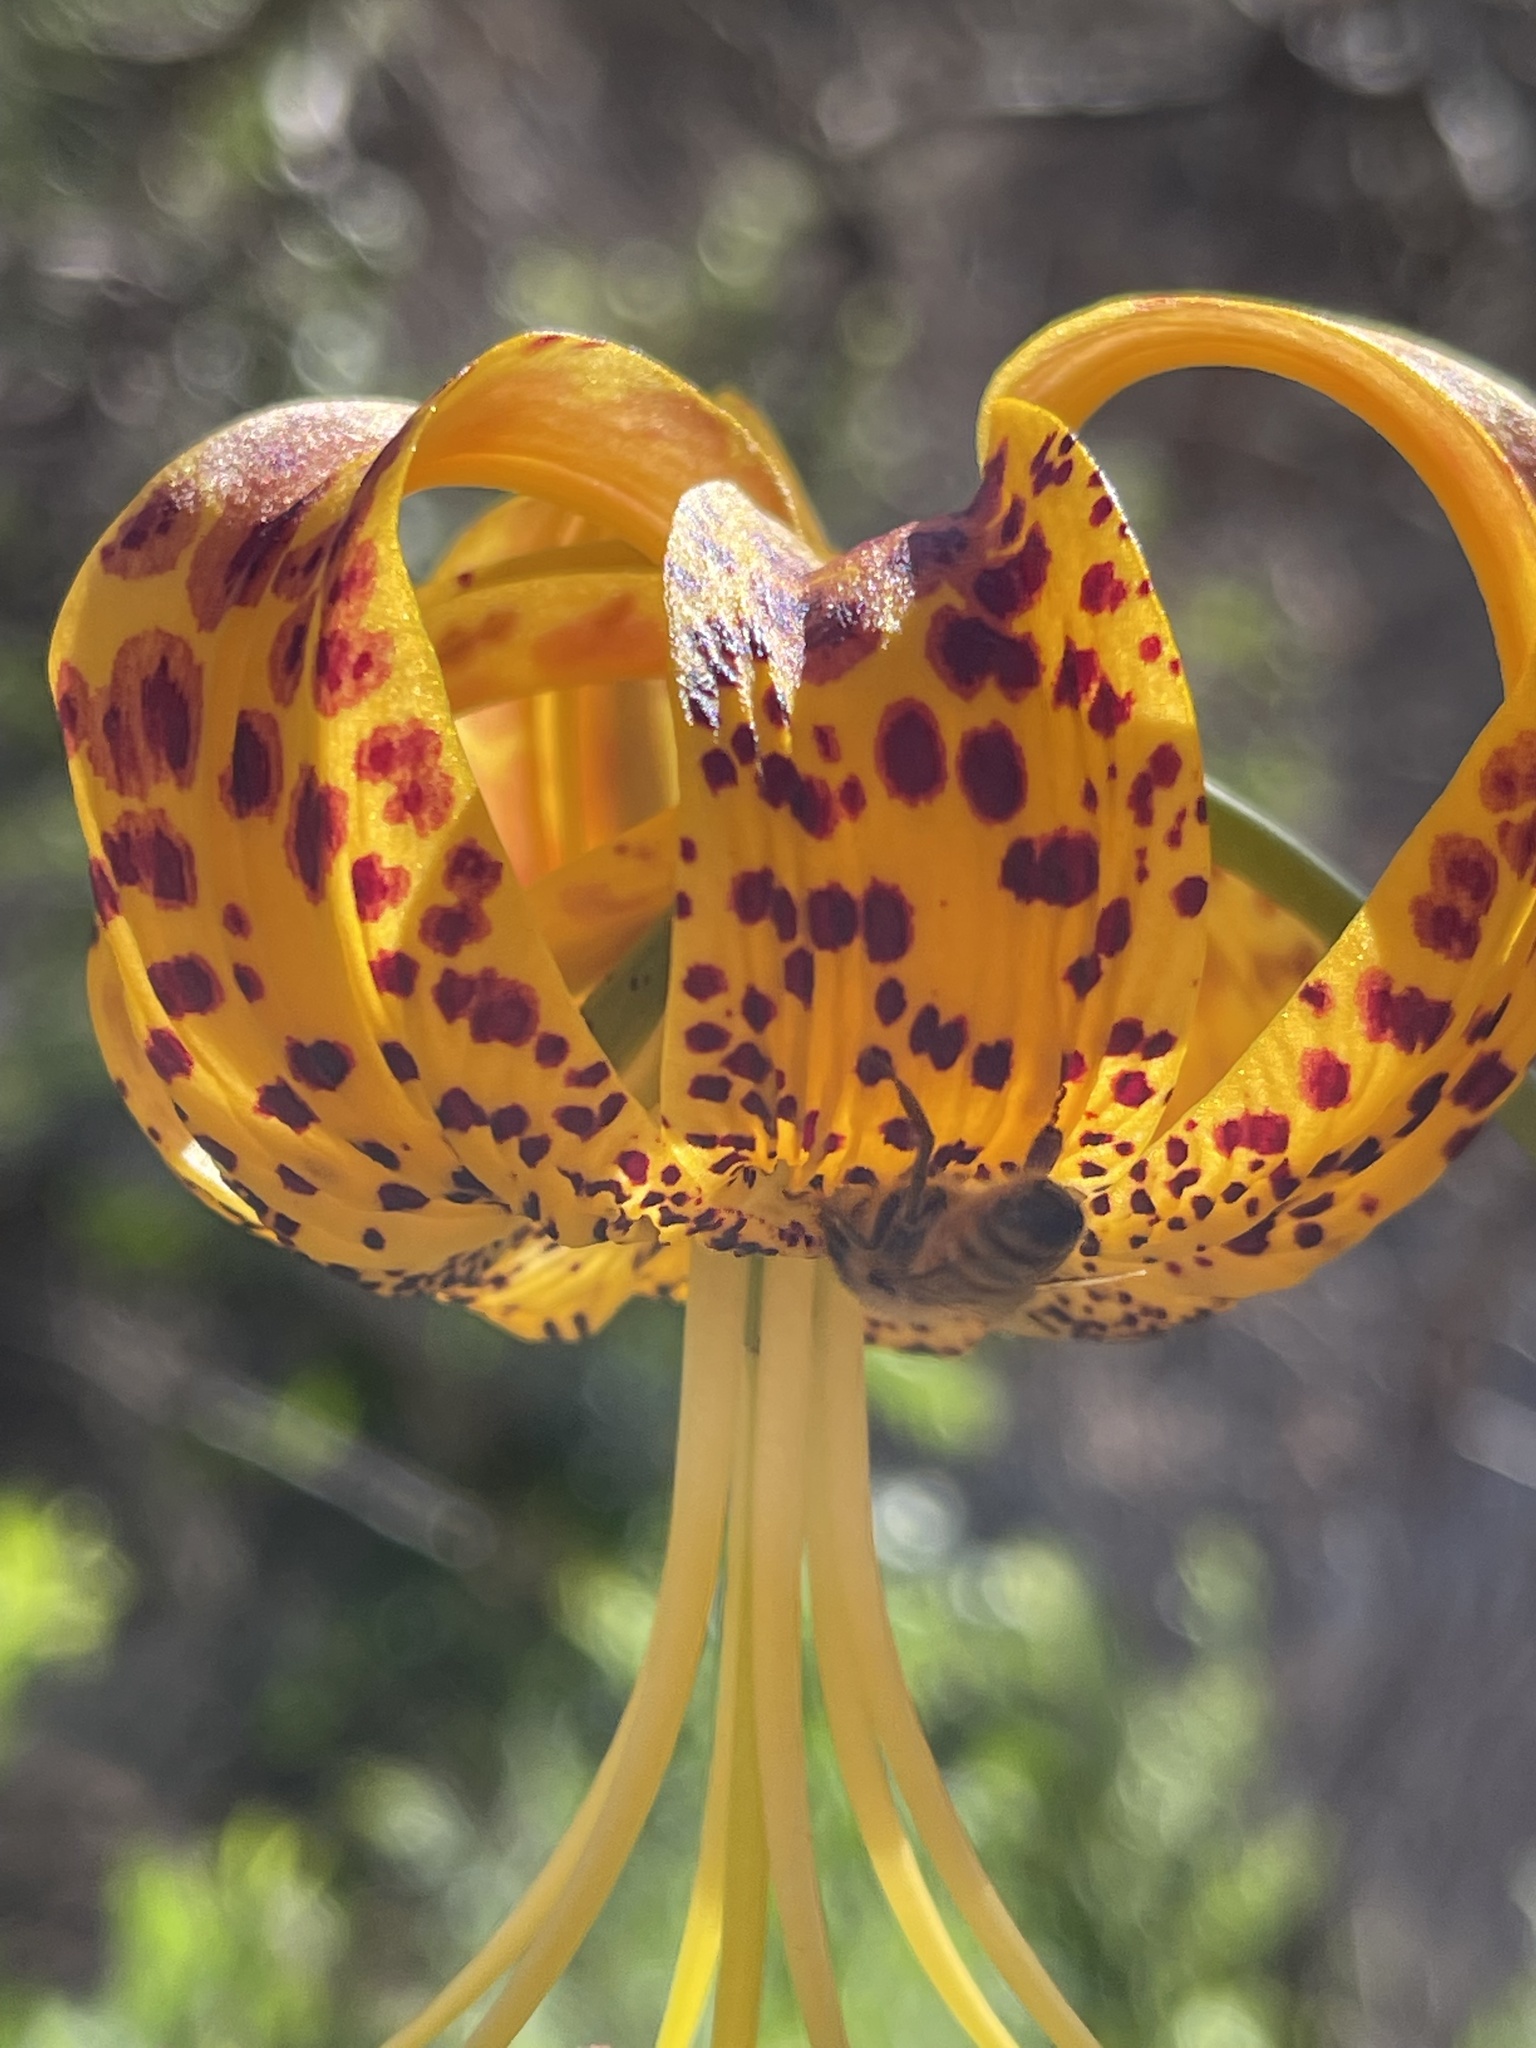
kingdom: Animalia
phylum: Arthropoda
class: Insecta
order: Hymenoptera
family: Apidae
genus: Apis
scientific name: Apis mellifera
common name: Honey bee
